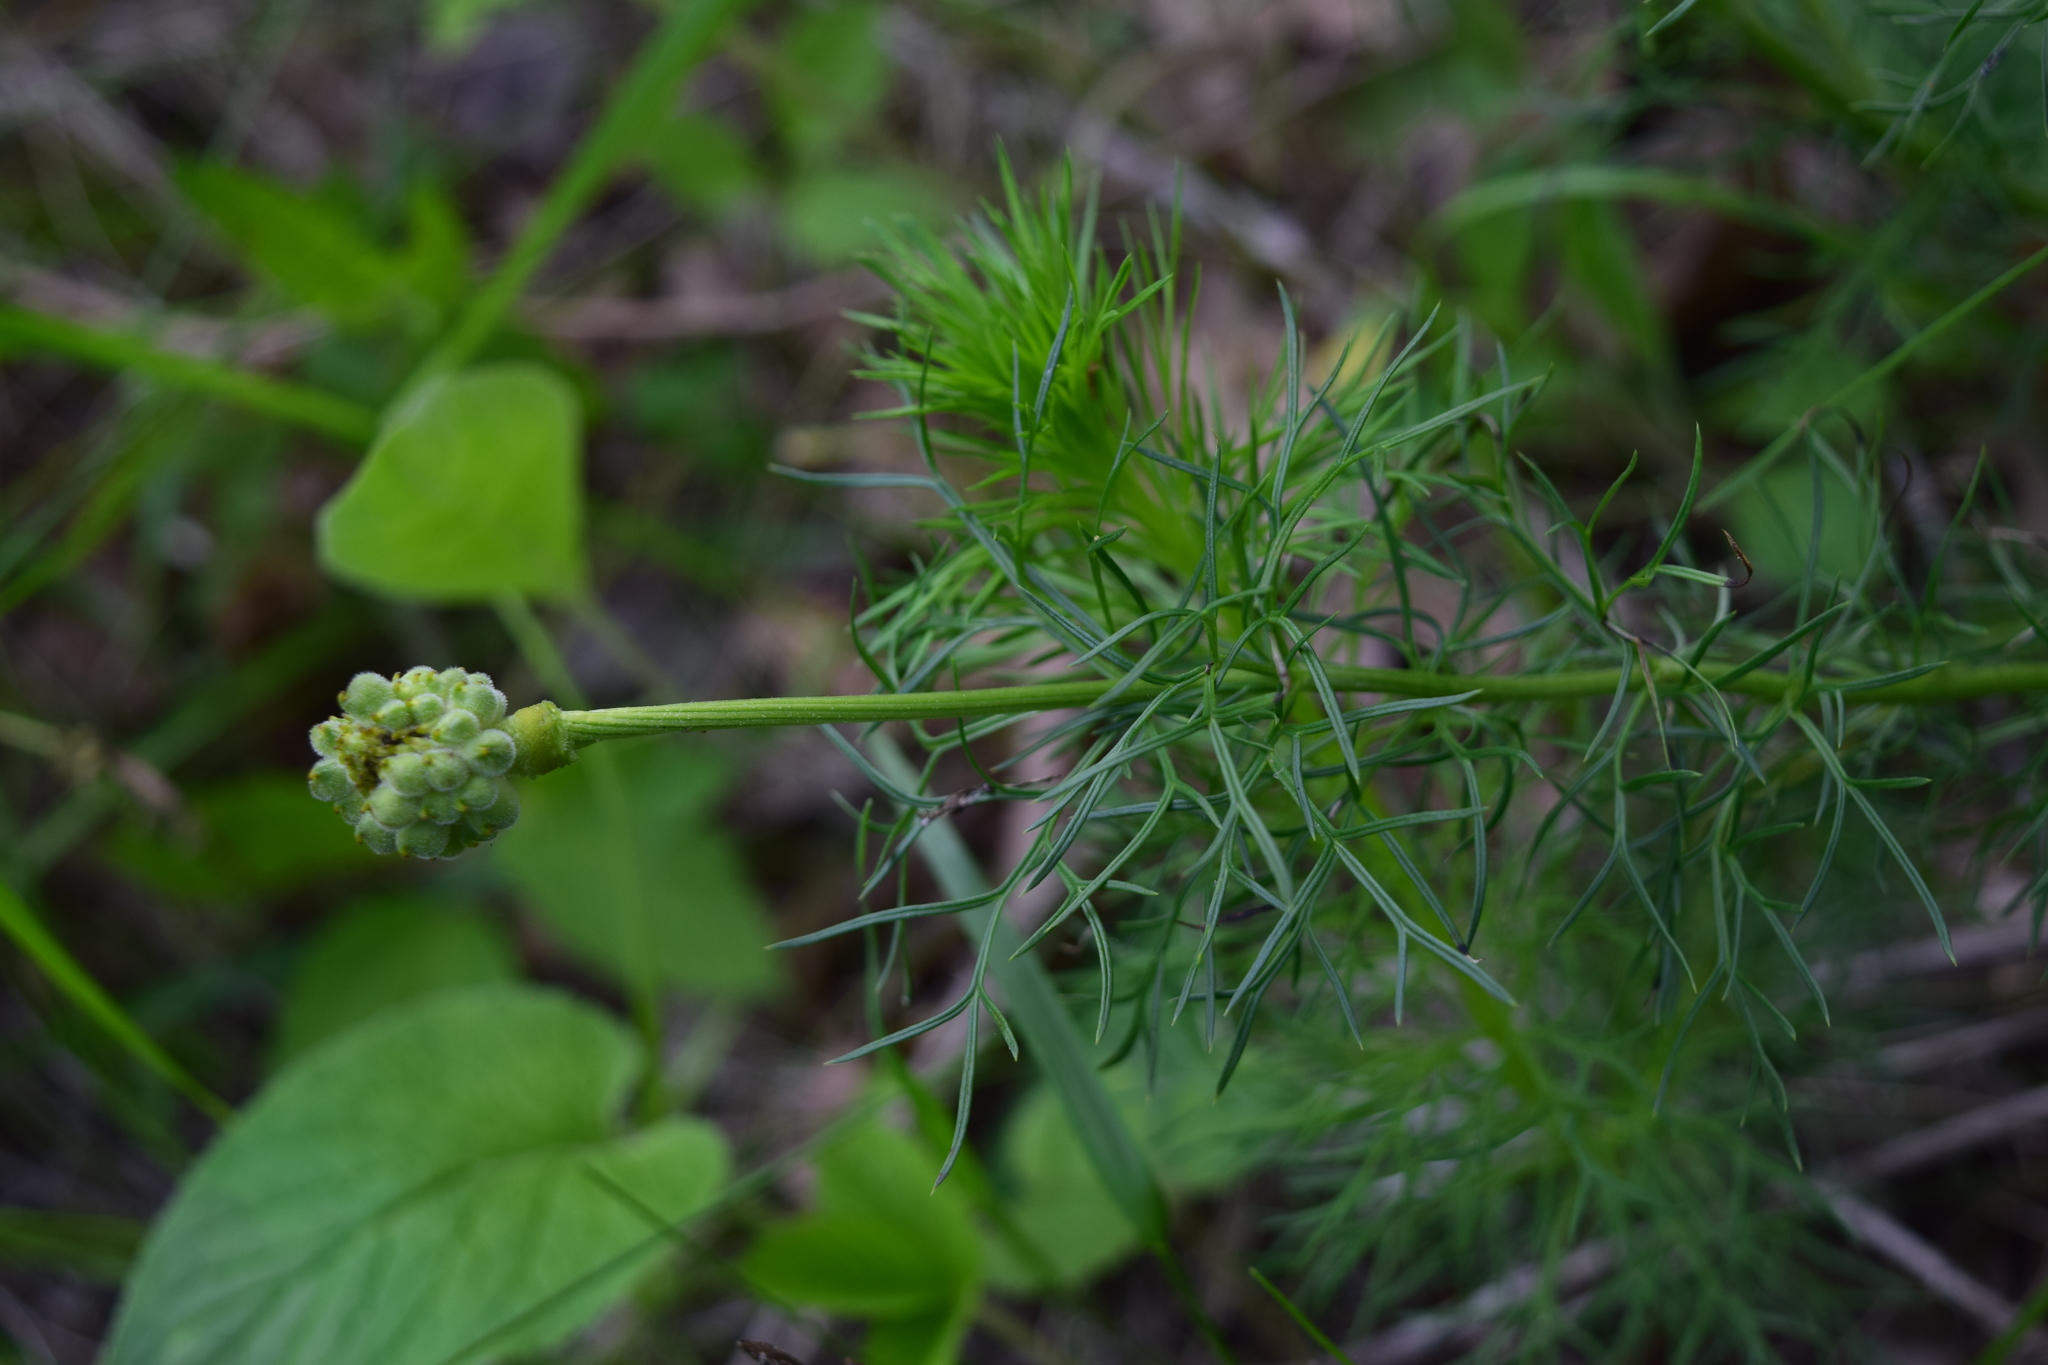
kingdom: Plantae
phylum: Tracheophyta
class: Magnoliopsida
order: Ranunculales
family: Ranunculaceae
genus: Adonis
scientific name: Adonis vernalis
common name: Yellow pheasants-eye
